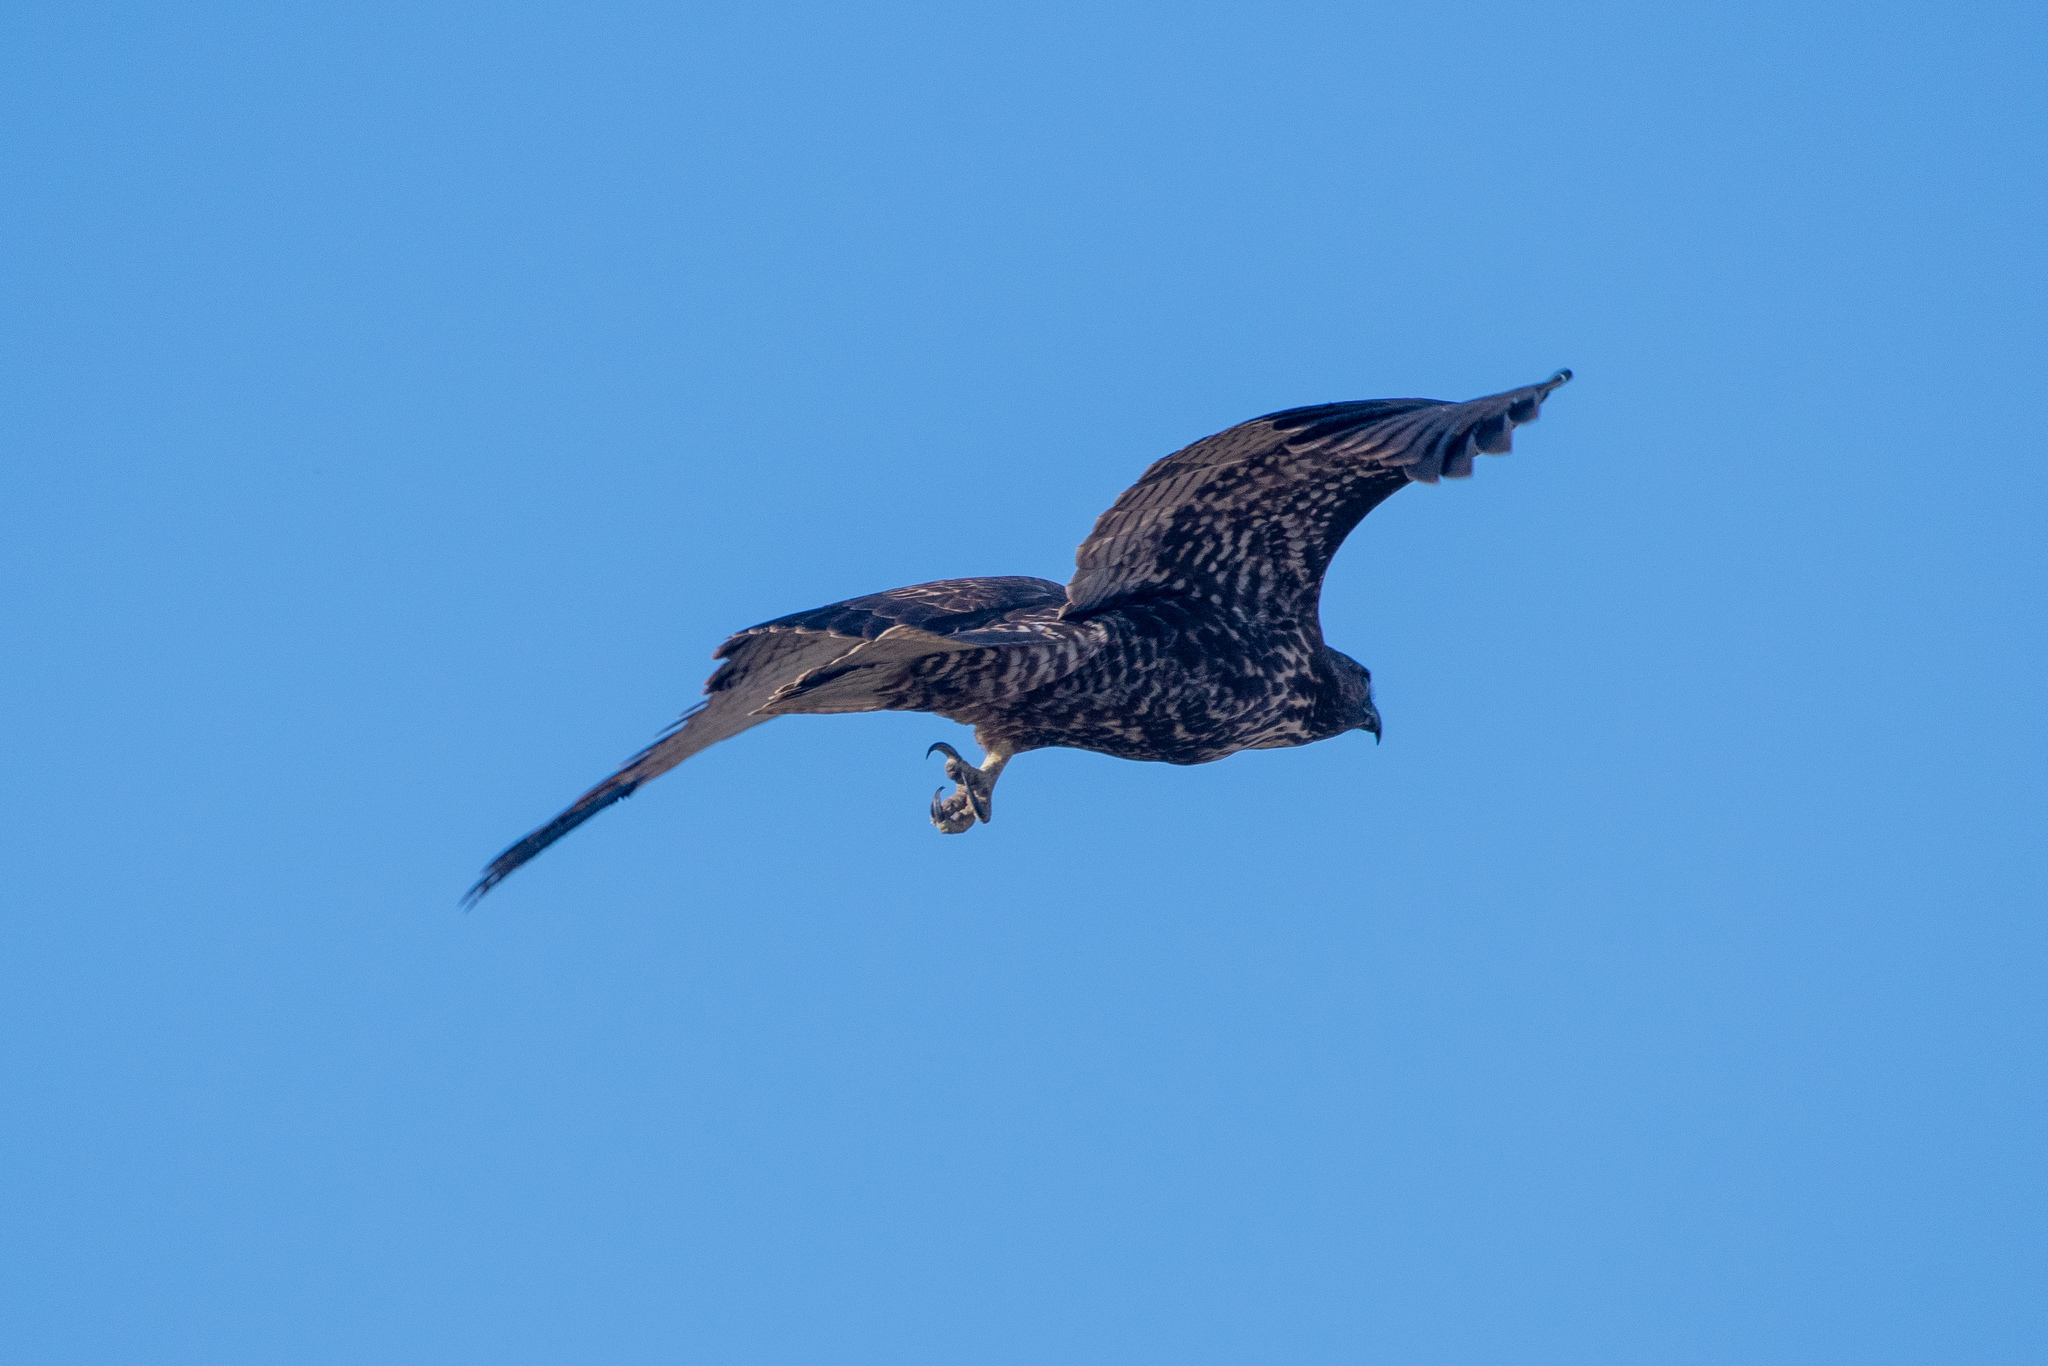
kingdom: Animalia
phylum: Chordata
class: Aves
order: Accipitriformes
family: Accipitridae
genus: Buteo
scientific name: Buteo jamaicensis
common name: Red-tailed hawk
